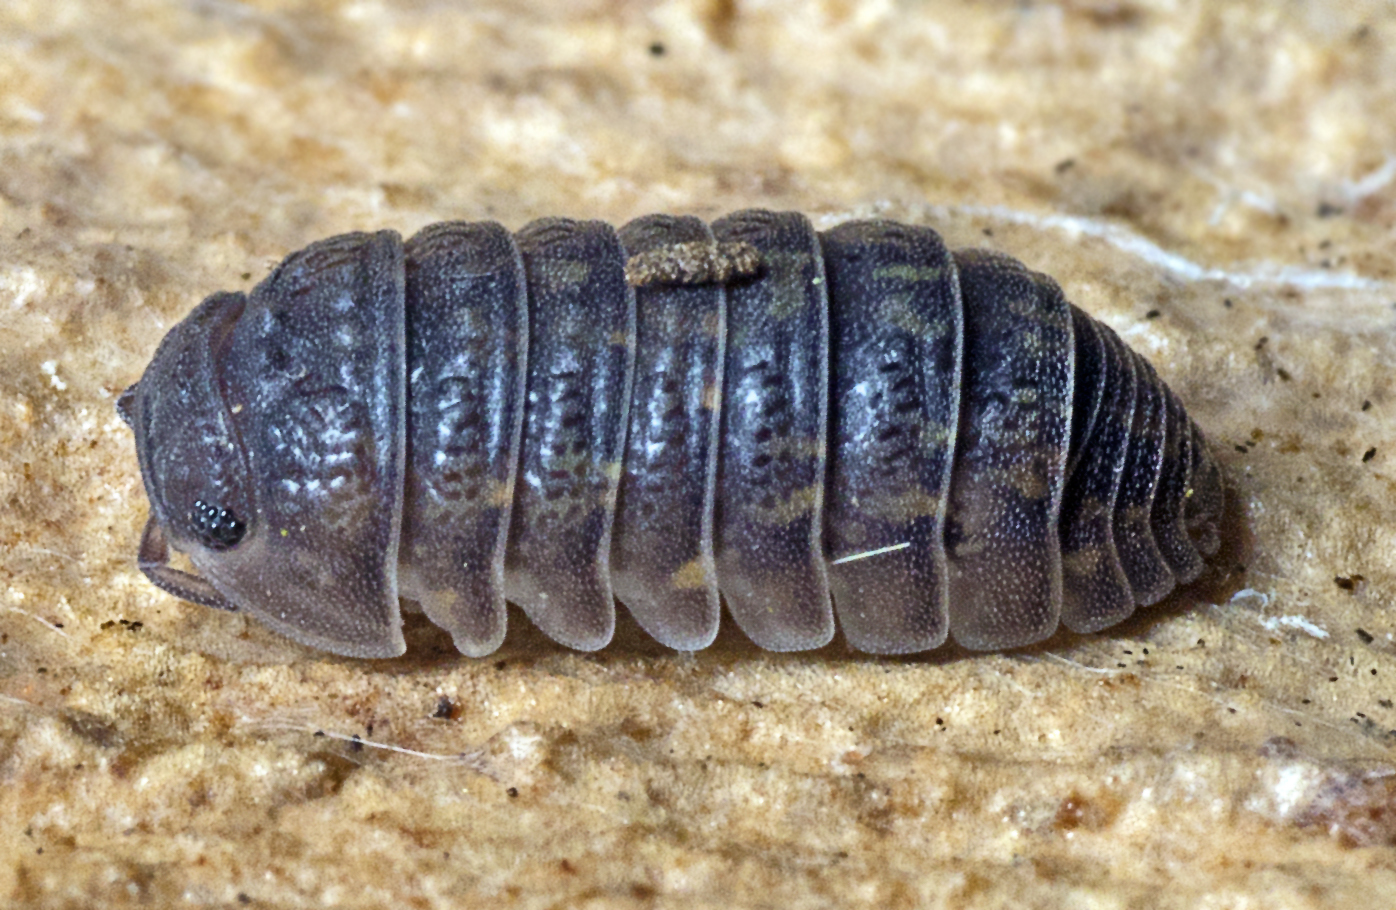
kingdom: Animalia
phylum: Arthropoda
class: Malacostraca
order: Isopoda
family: Armadillidae
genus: Cubaris
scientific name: Cubaris nigroflava
